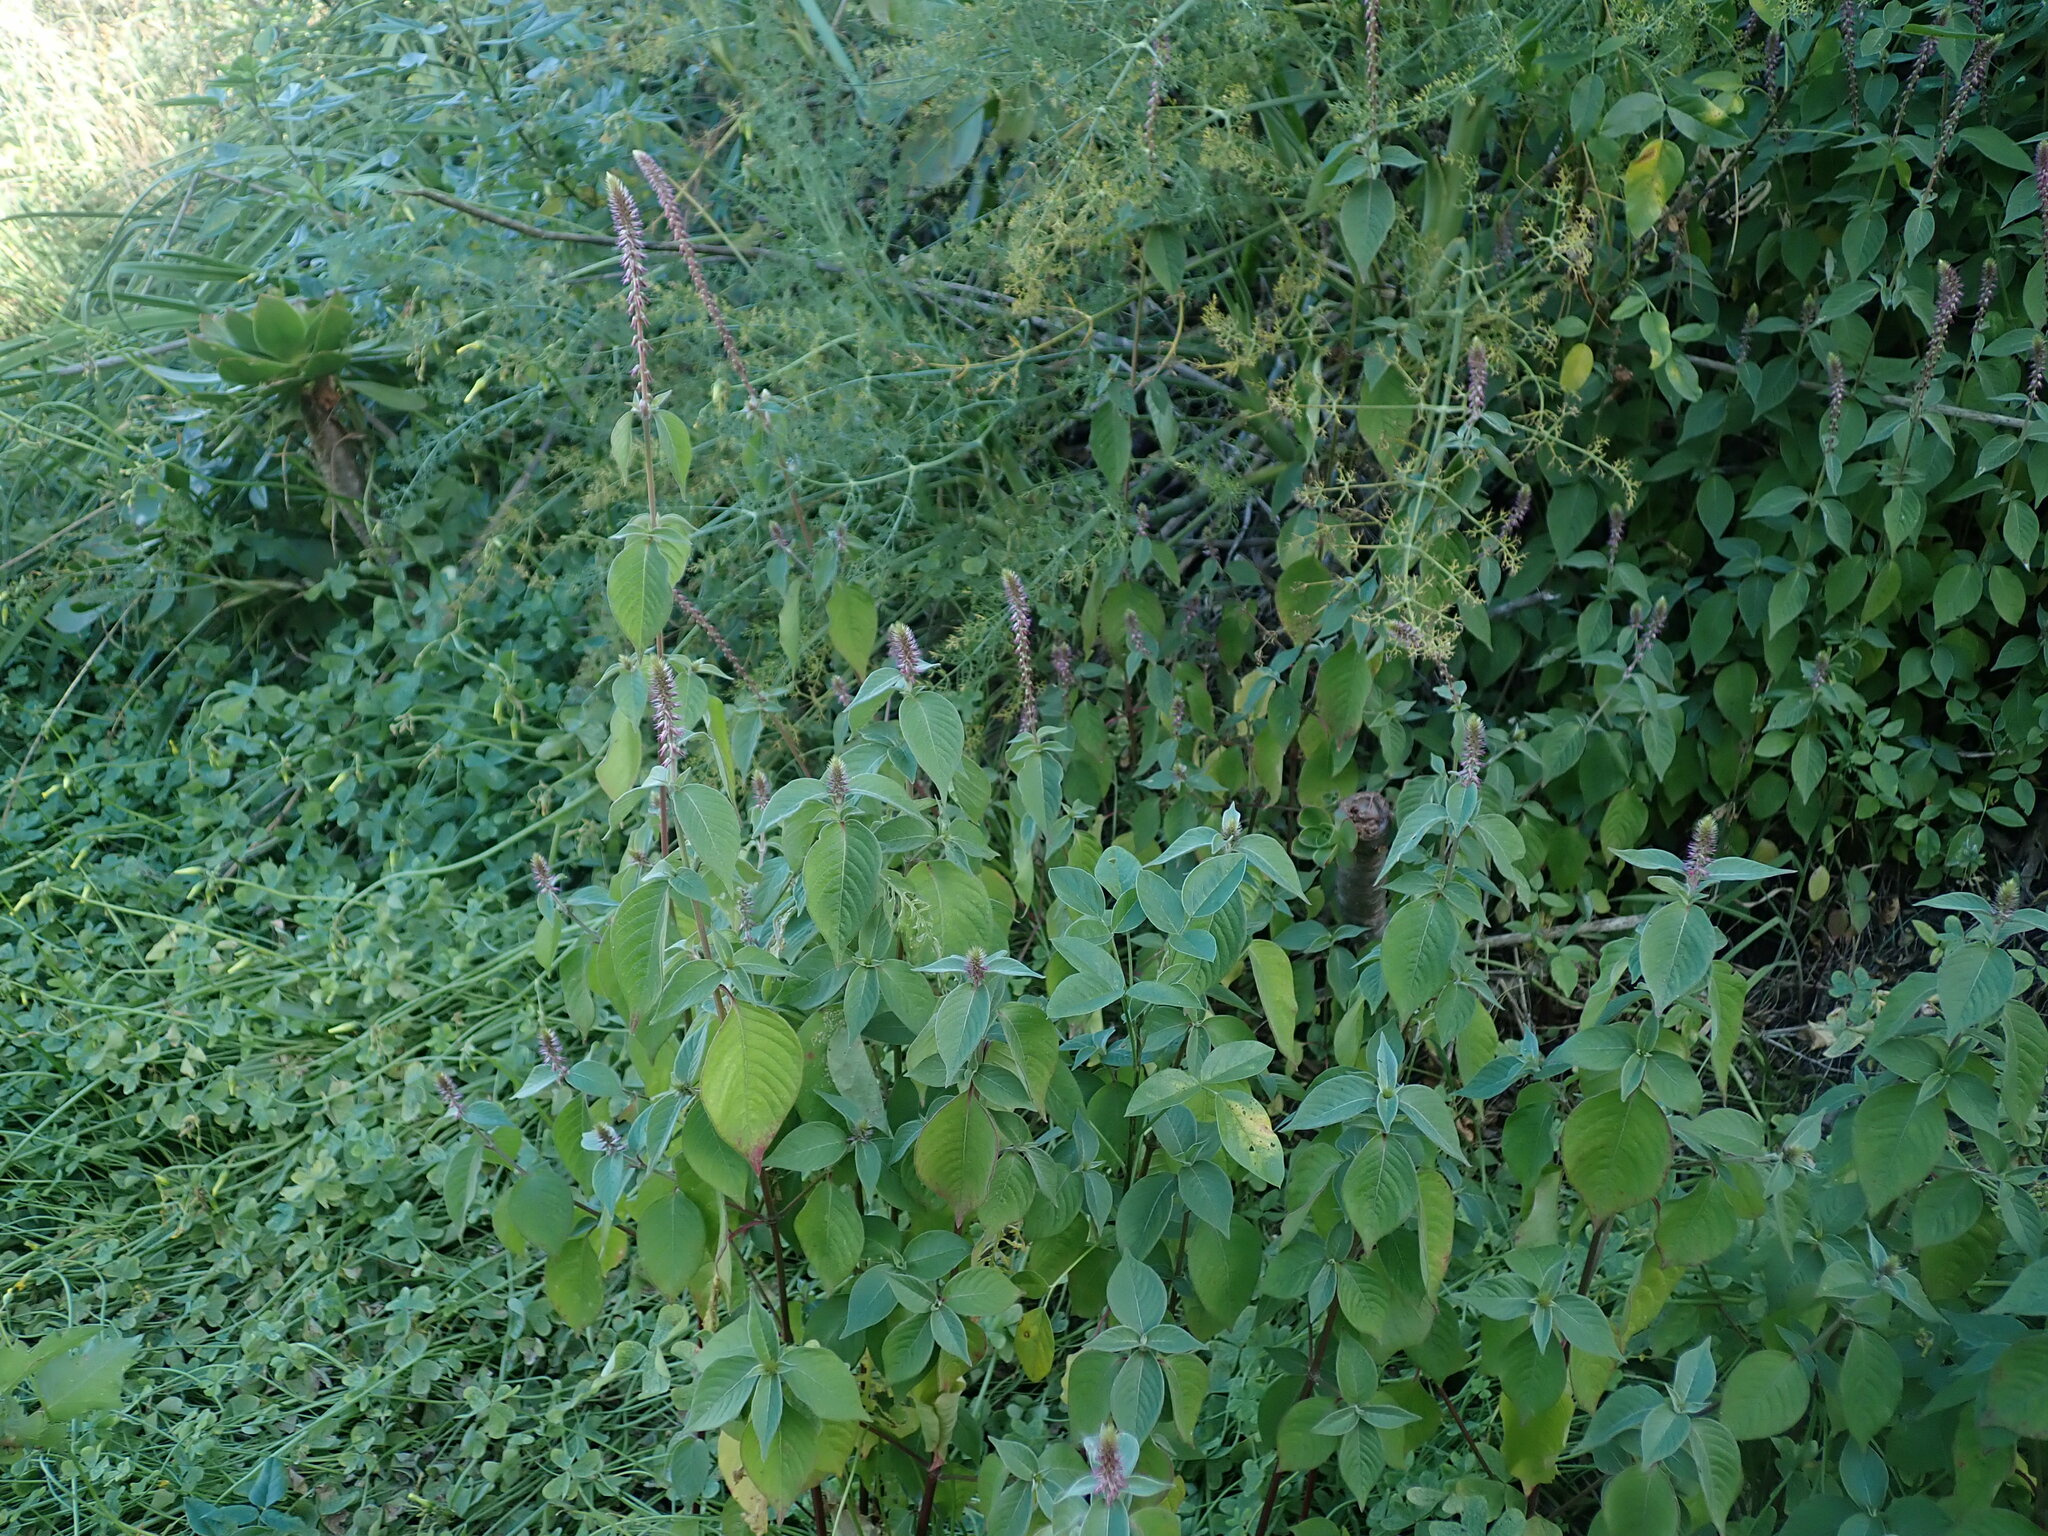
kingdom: Plantae
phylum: Tracheophyta
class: Magnoliopsida
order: Caryophyllales
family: Amaranthaceae
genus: Achyranthes
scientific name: Achyranthes aspera
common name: Devil's horsewhip
